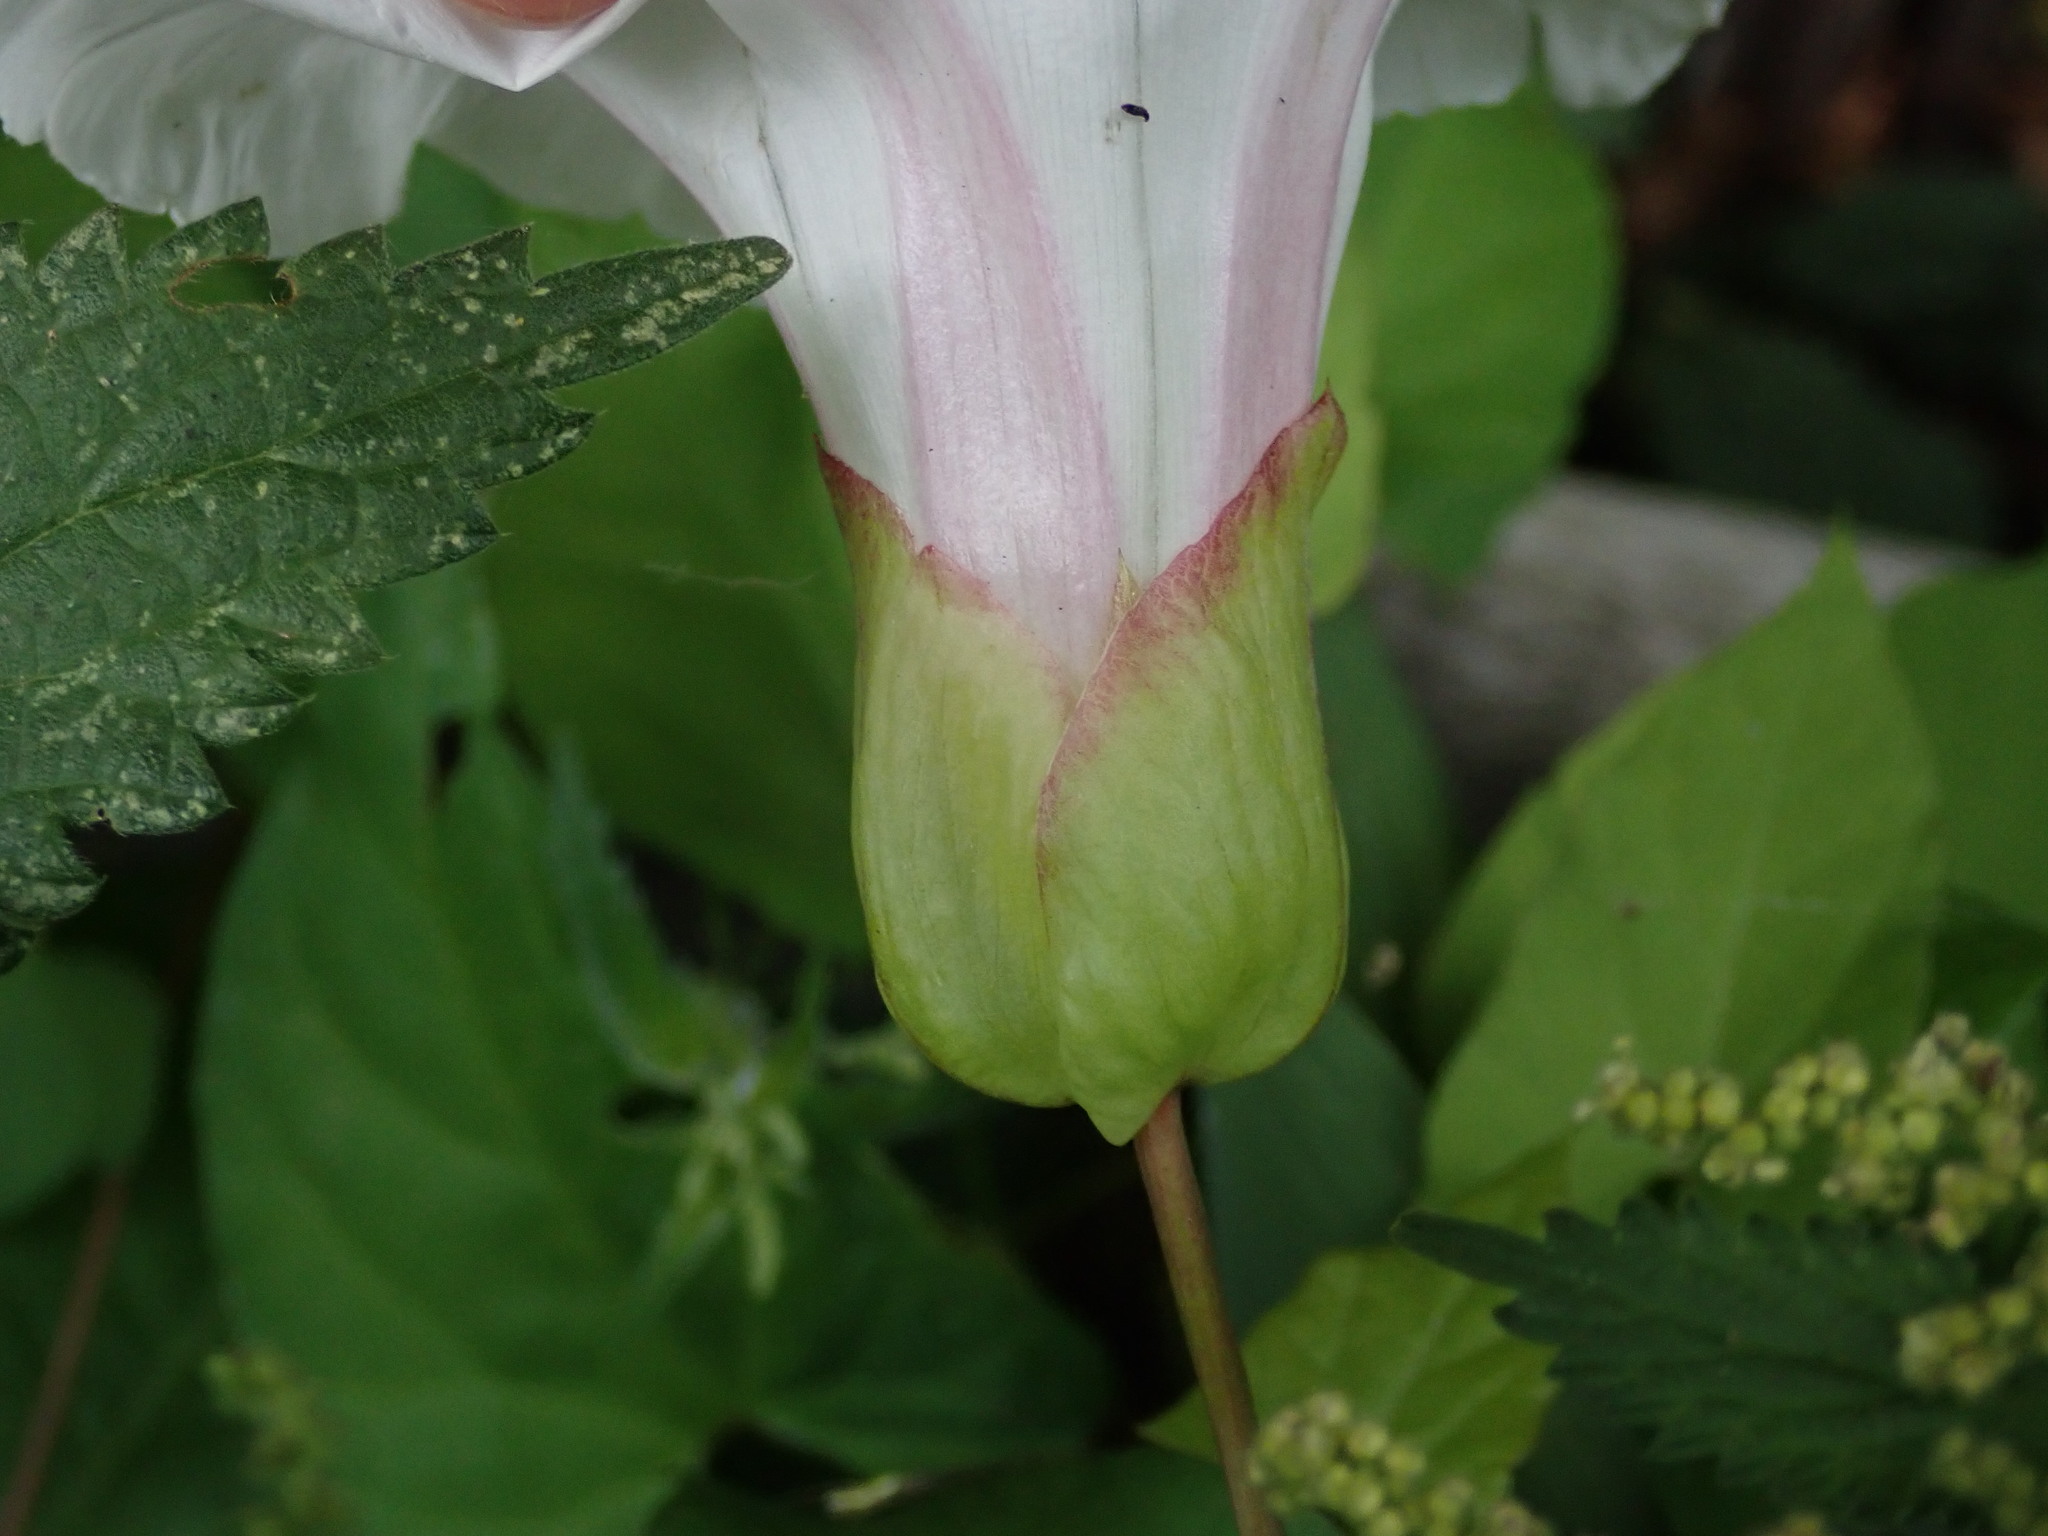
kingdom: Plantae
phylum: Tracheophyta
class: Magnoliopsida
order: Solanales
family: Convolvulaceae
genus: Calystegia
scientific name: Calystegia silvatica
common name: Large bindweed
